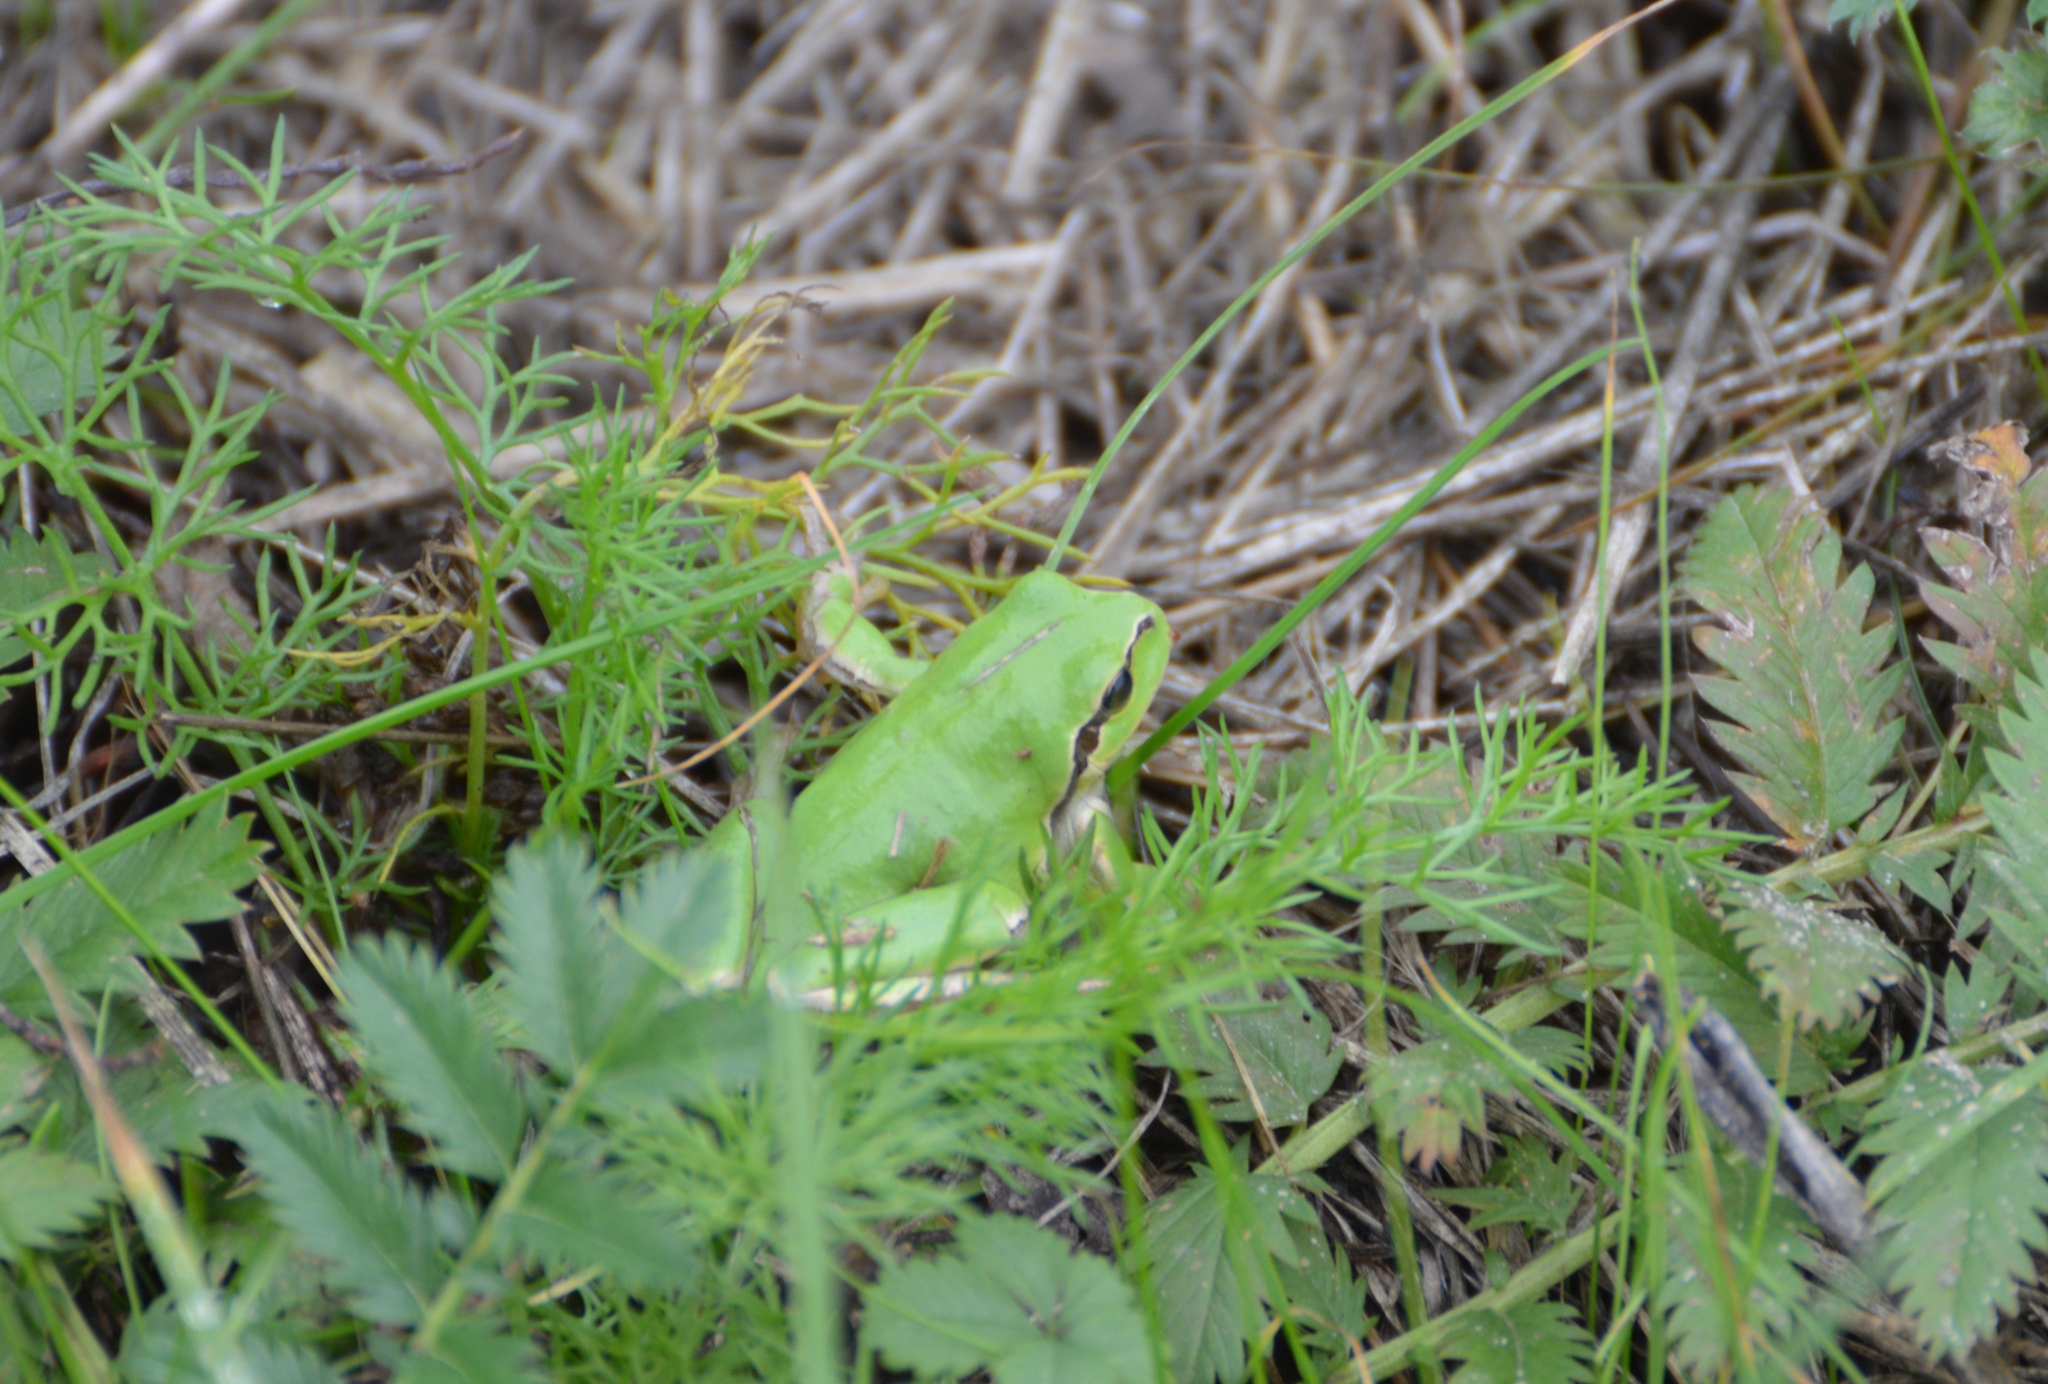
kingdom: Animalia
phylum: Chordata
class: Amphibia
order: Anura
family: Hylidae
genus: Hyla
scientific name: Hyla arborea
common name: Common tree frog
